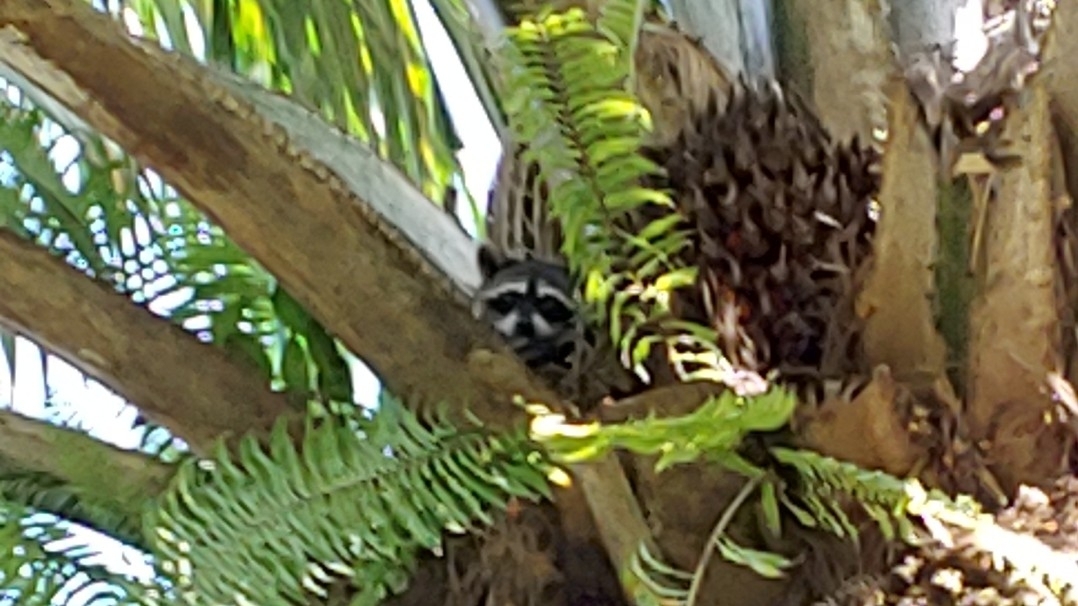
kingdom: Animalia
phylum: Chordata
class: Mammalia
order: Carnivora
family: Procyonidae
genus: Procyon
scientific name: Procyon lotor
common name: Raccoon
